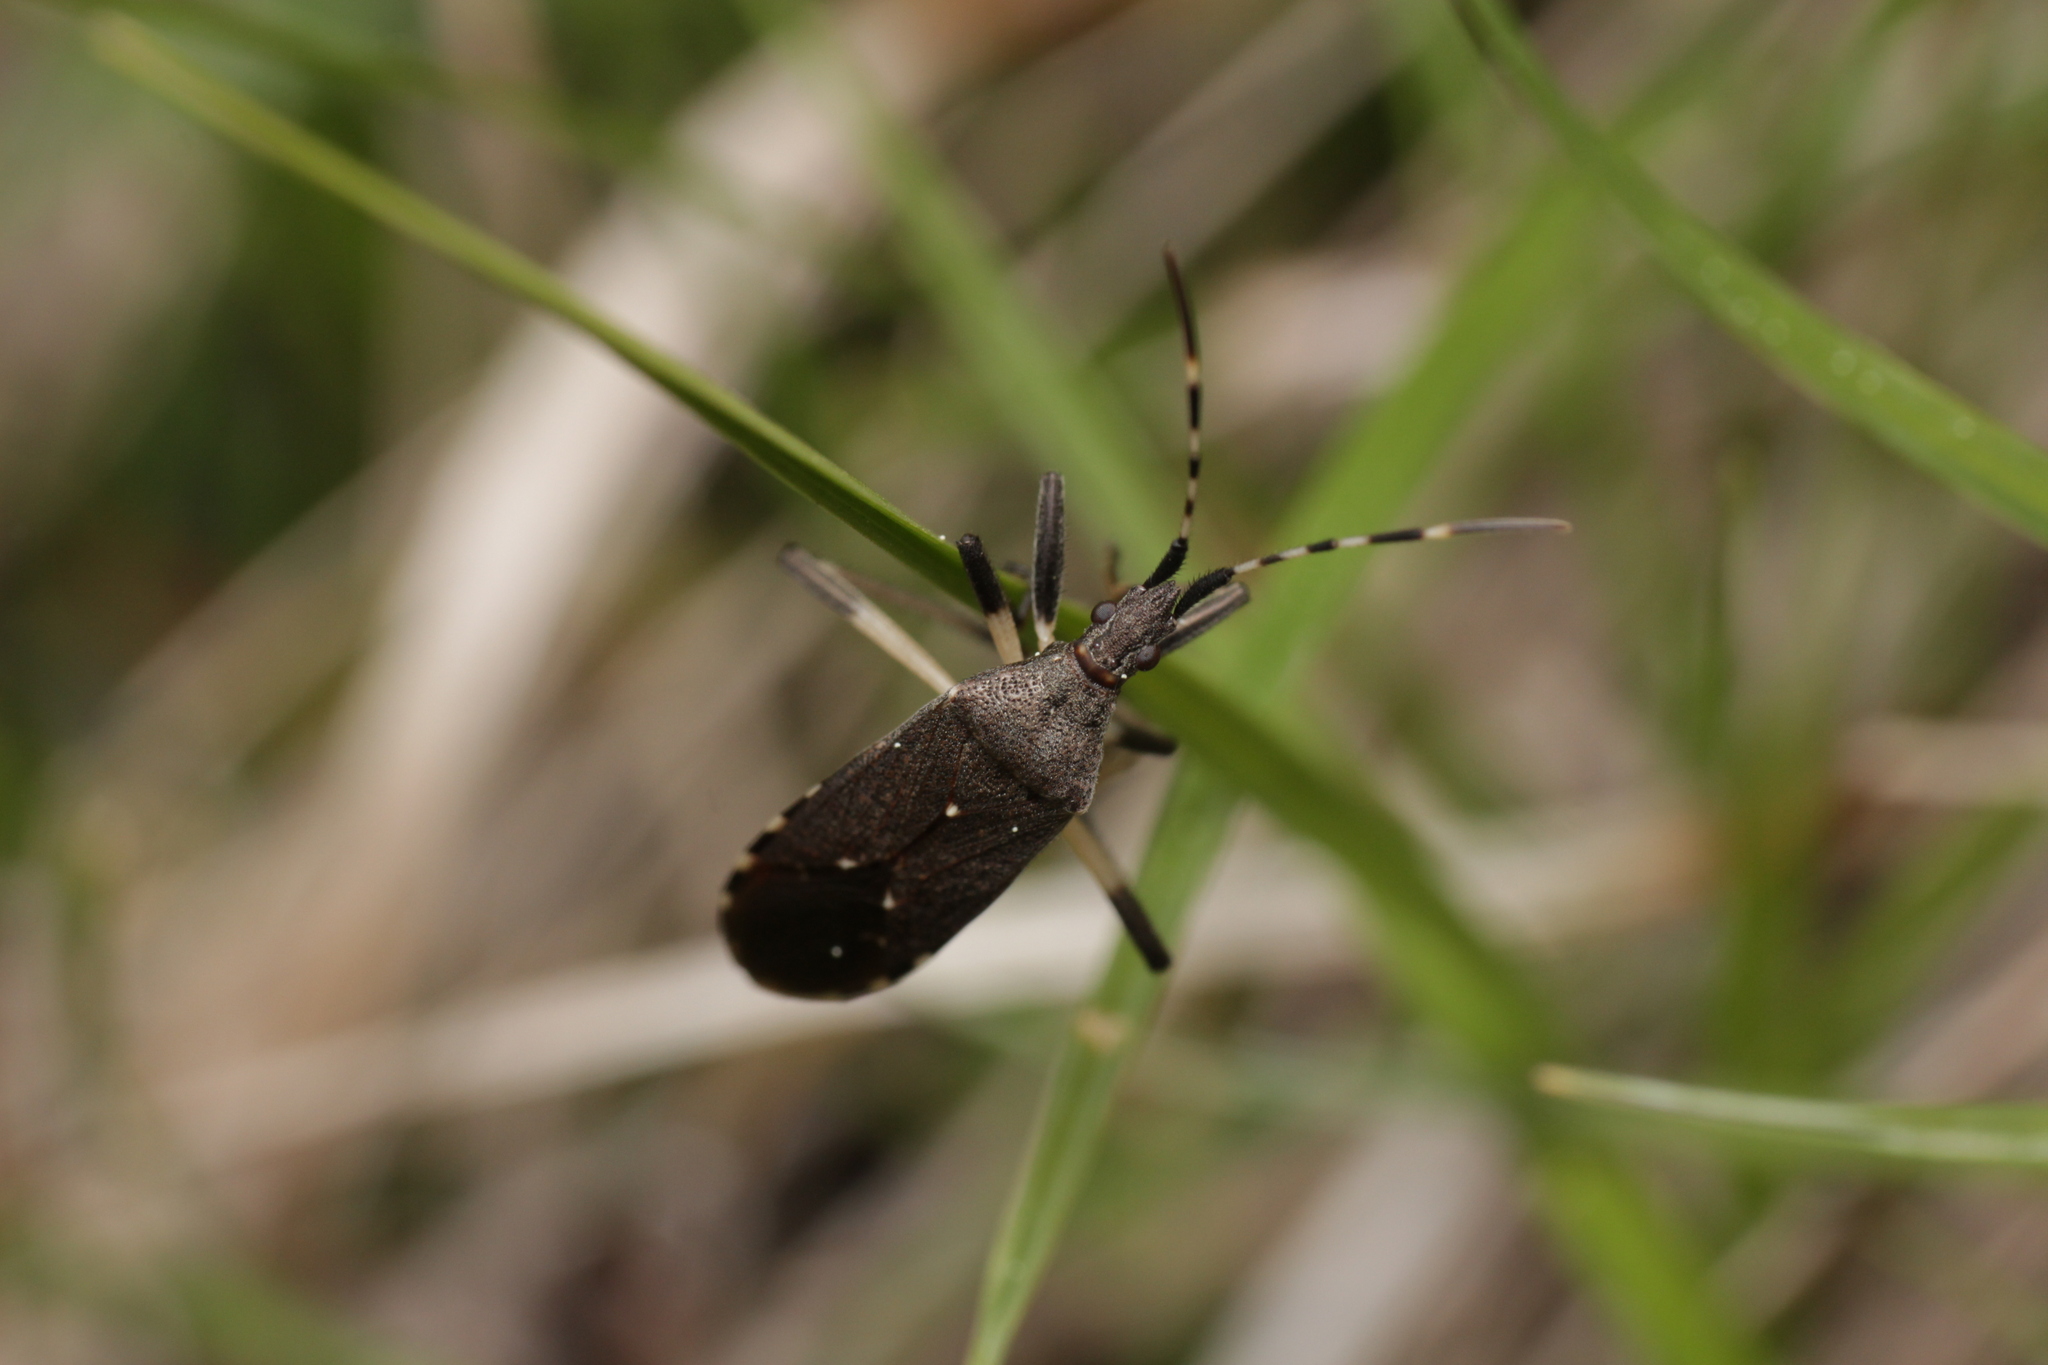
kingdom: Animalia
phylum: Arthropoda
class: Insecta
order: Hemiptera
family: Stenocephalidae
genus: Dicranocephalus
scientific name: Dicranocephalus agilis
